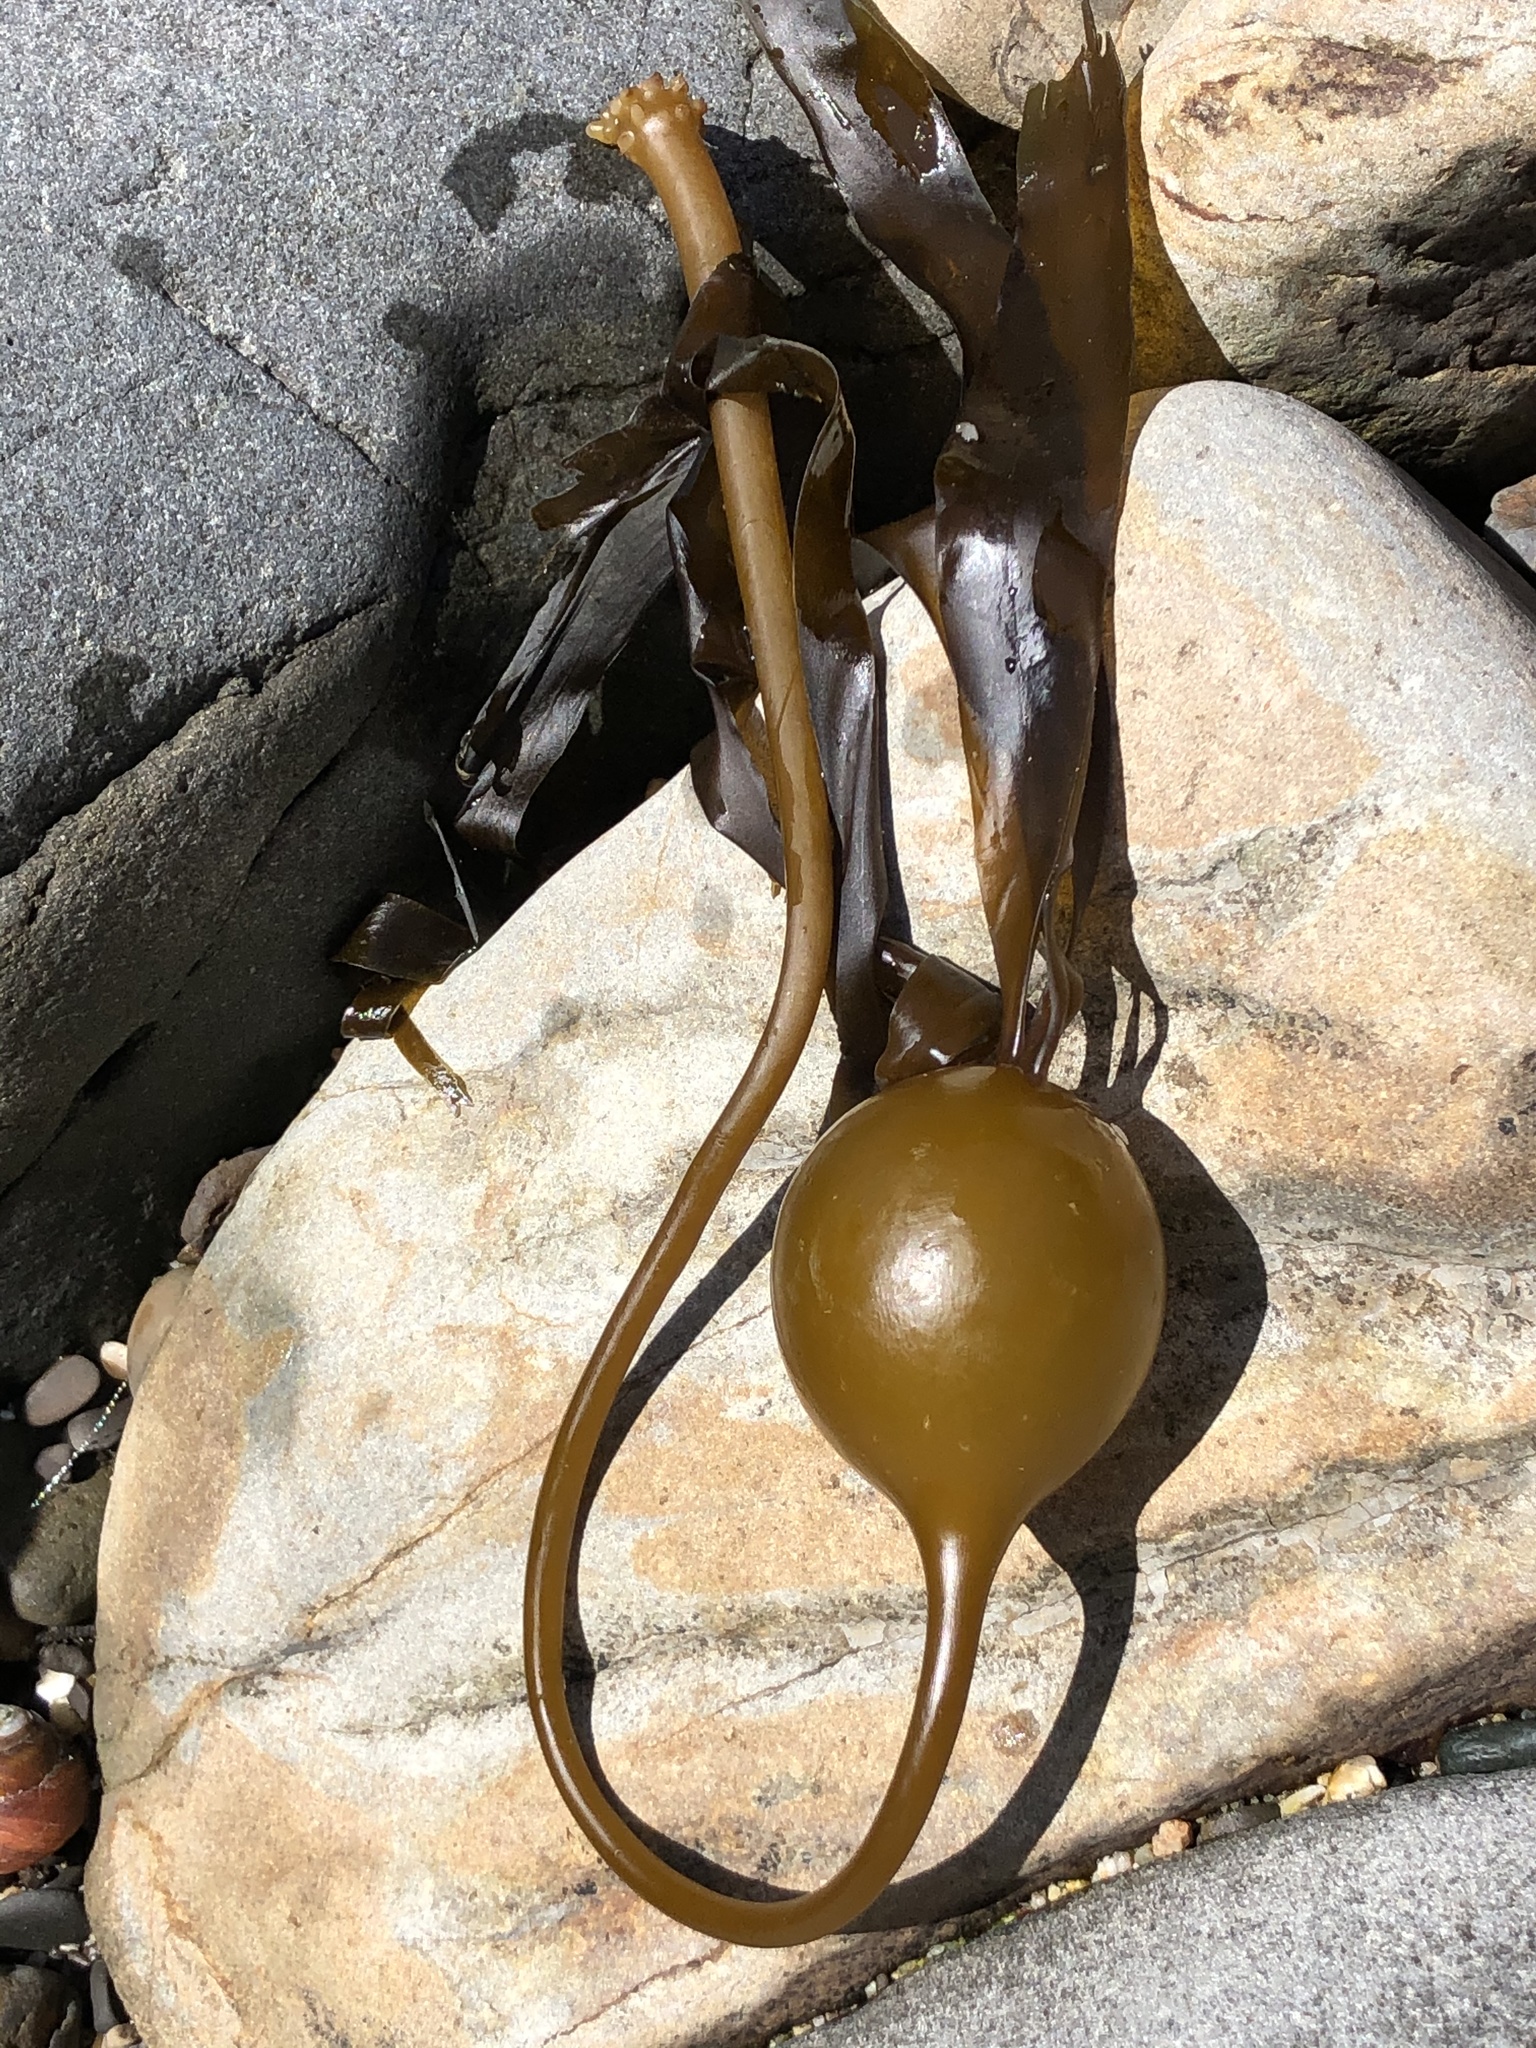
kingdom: Chromista
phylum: Ochrophyta
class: Phaeophyceae
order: Laminariales
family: Laminariaceae
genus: Nereocystis
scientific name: Nereocystis luetkeana
